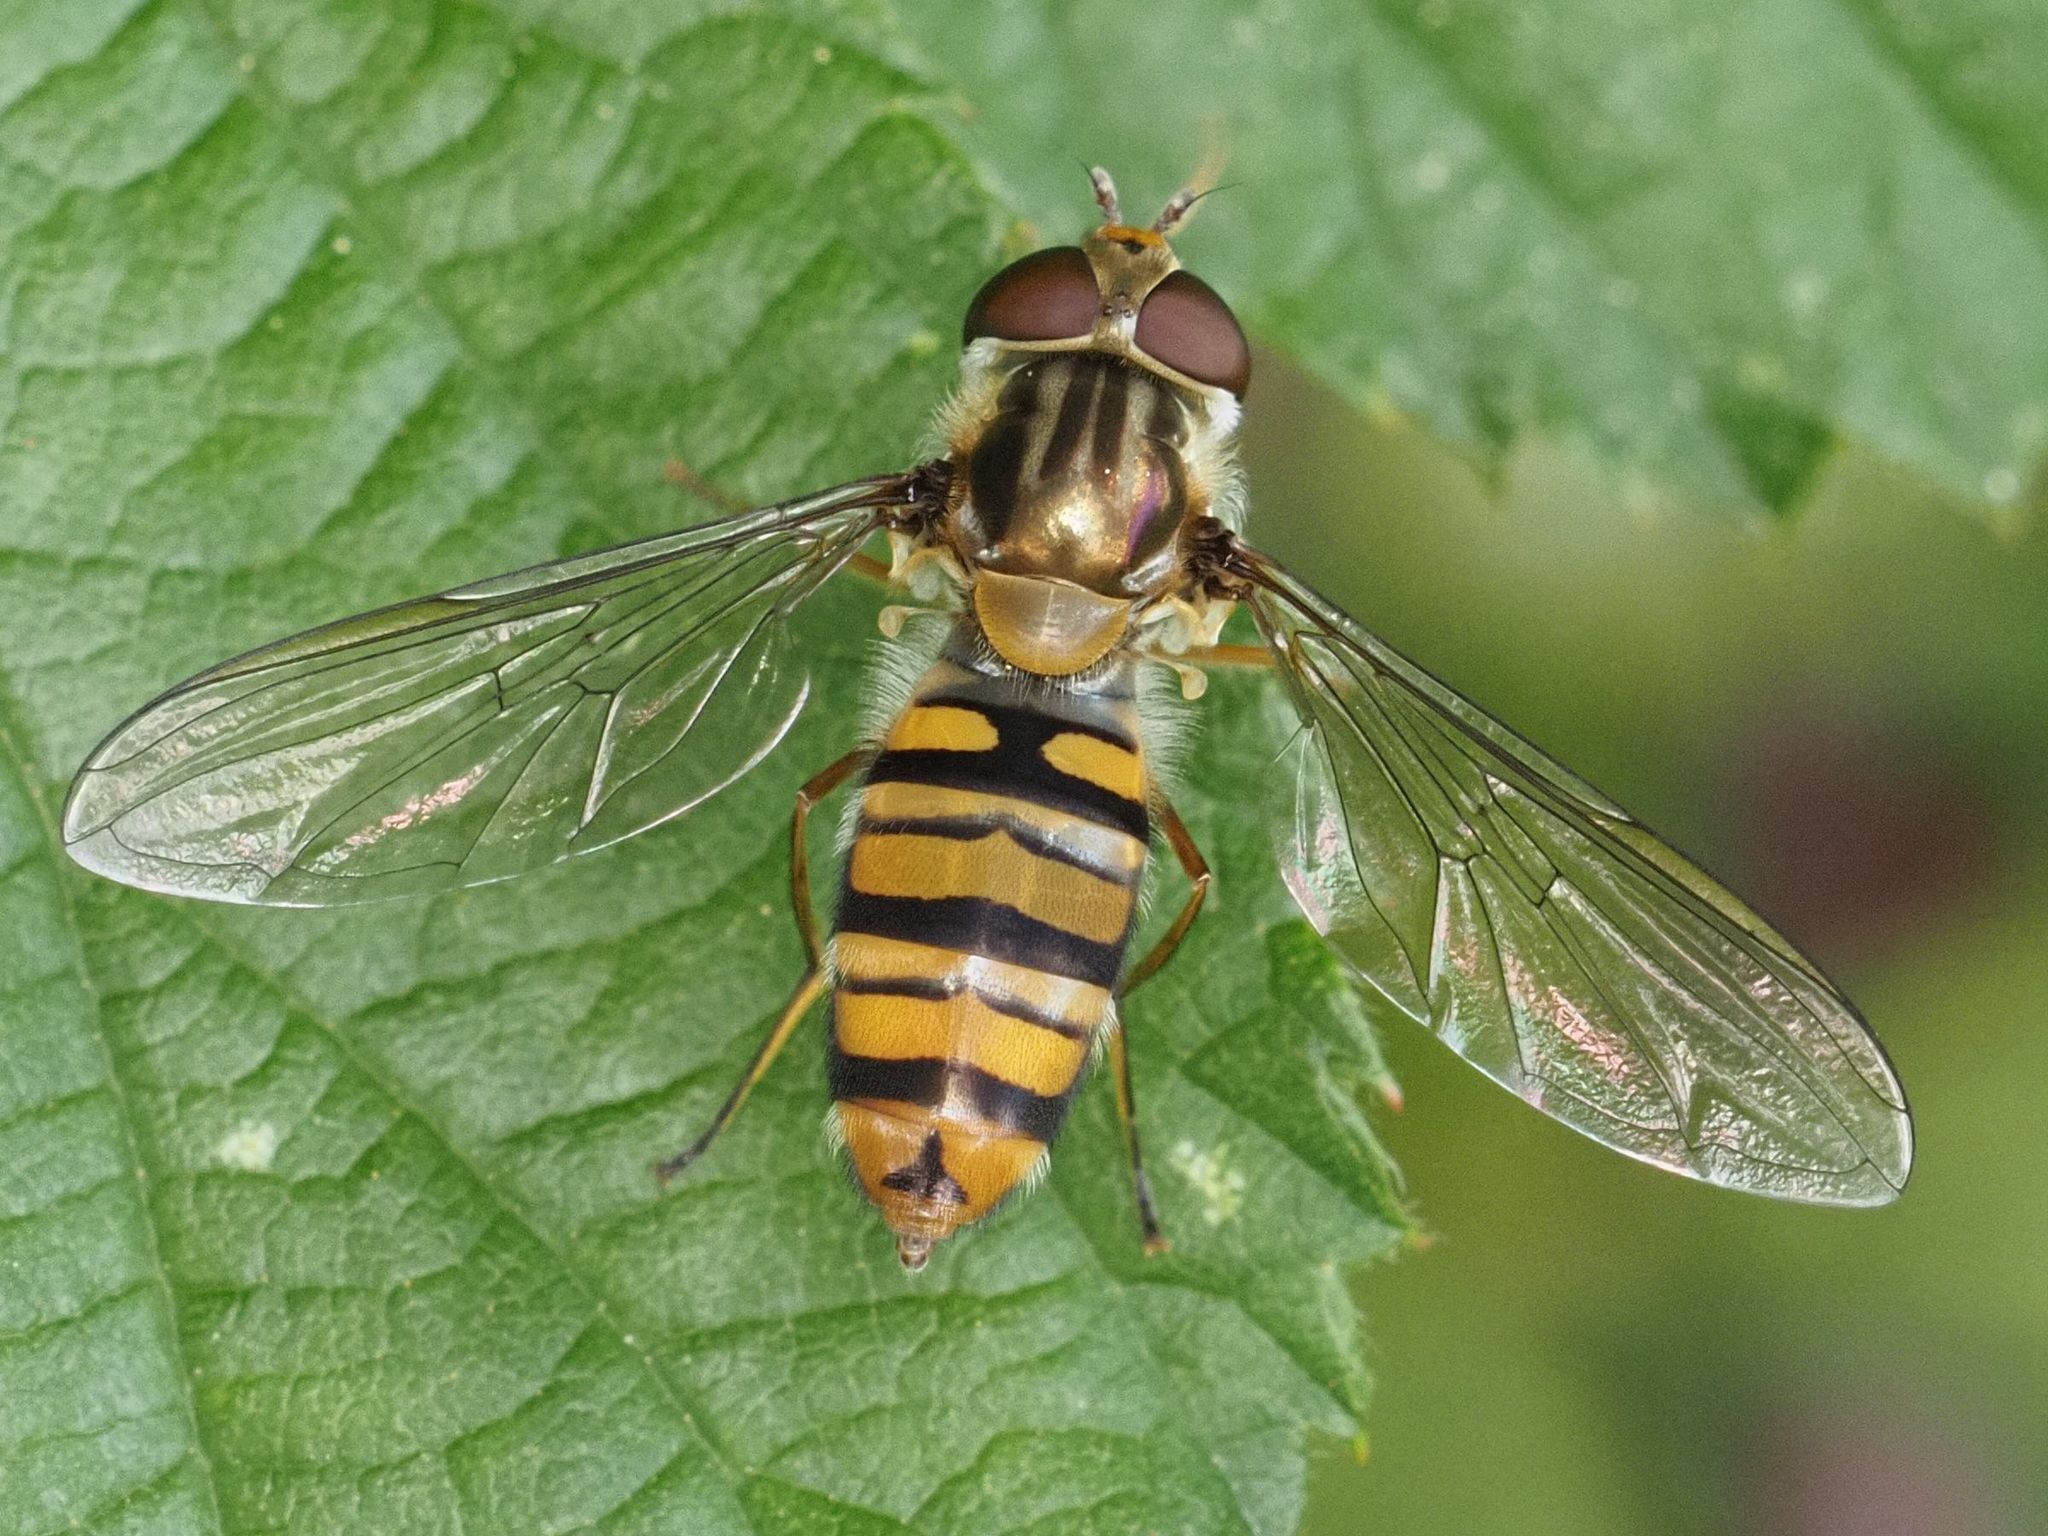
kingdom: Animalia
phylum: Arthropoda
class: Insecta
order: Diptera
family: Syrphidae
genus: Episyrphus
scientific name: Episyrphus balteatus
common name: Marmalade hoverfly
